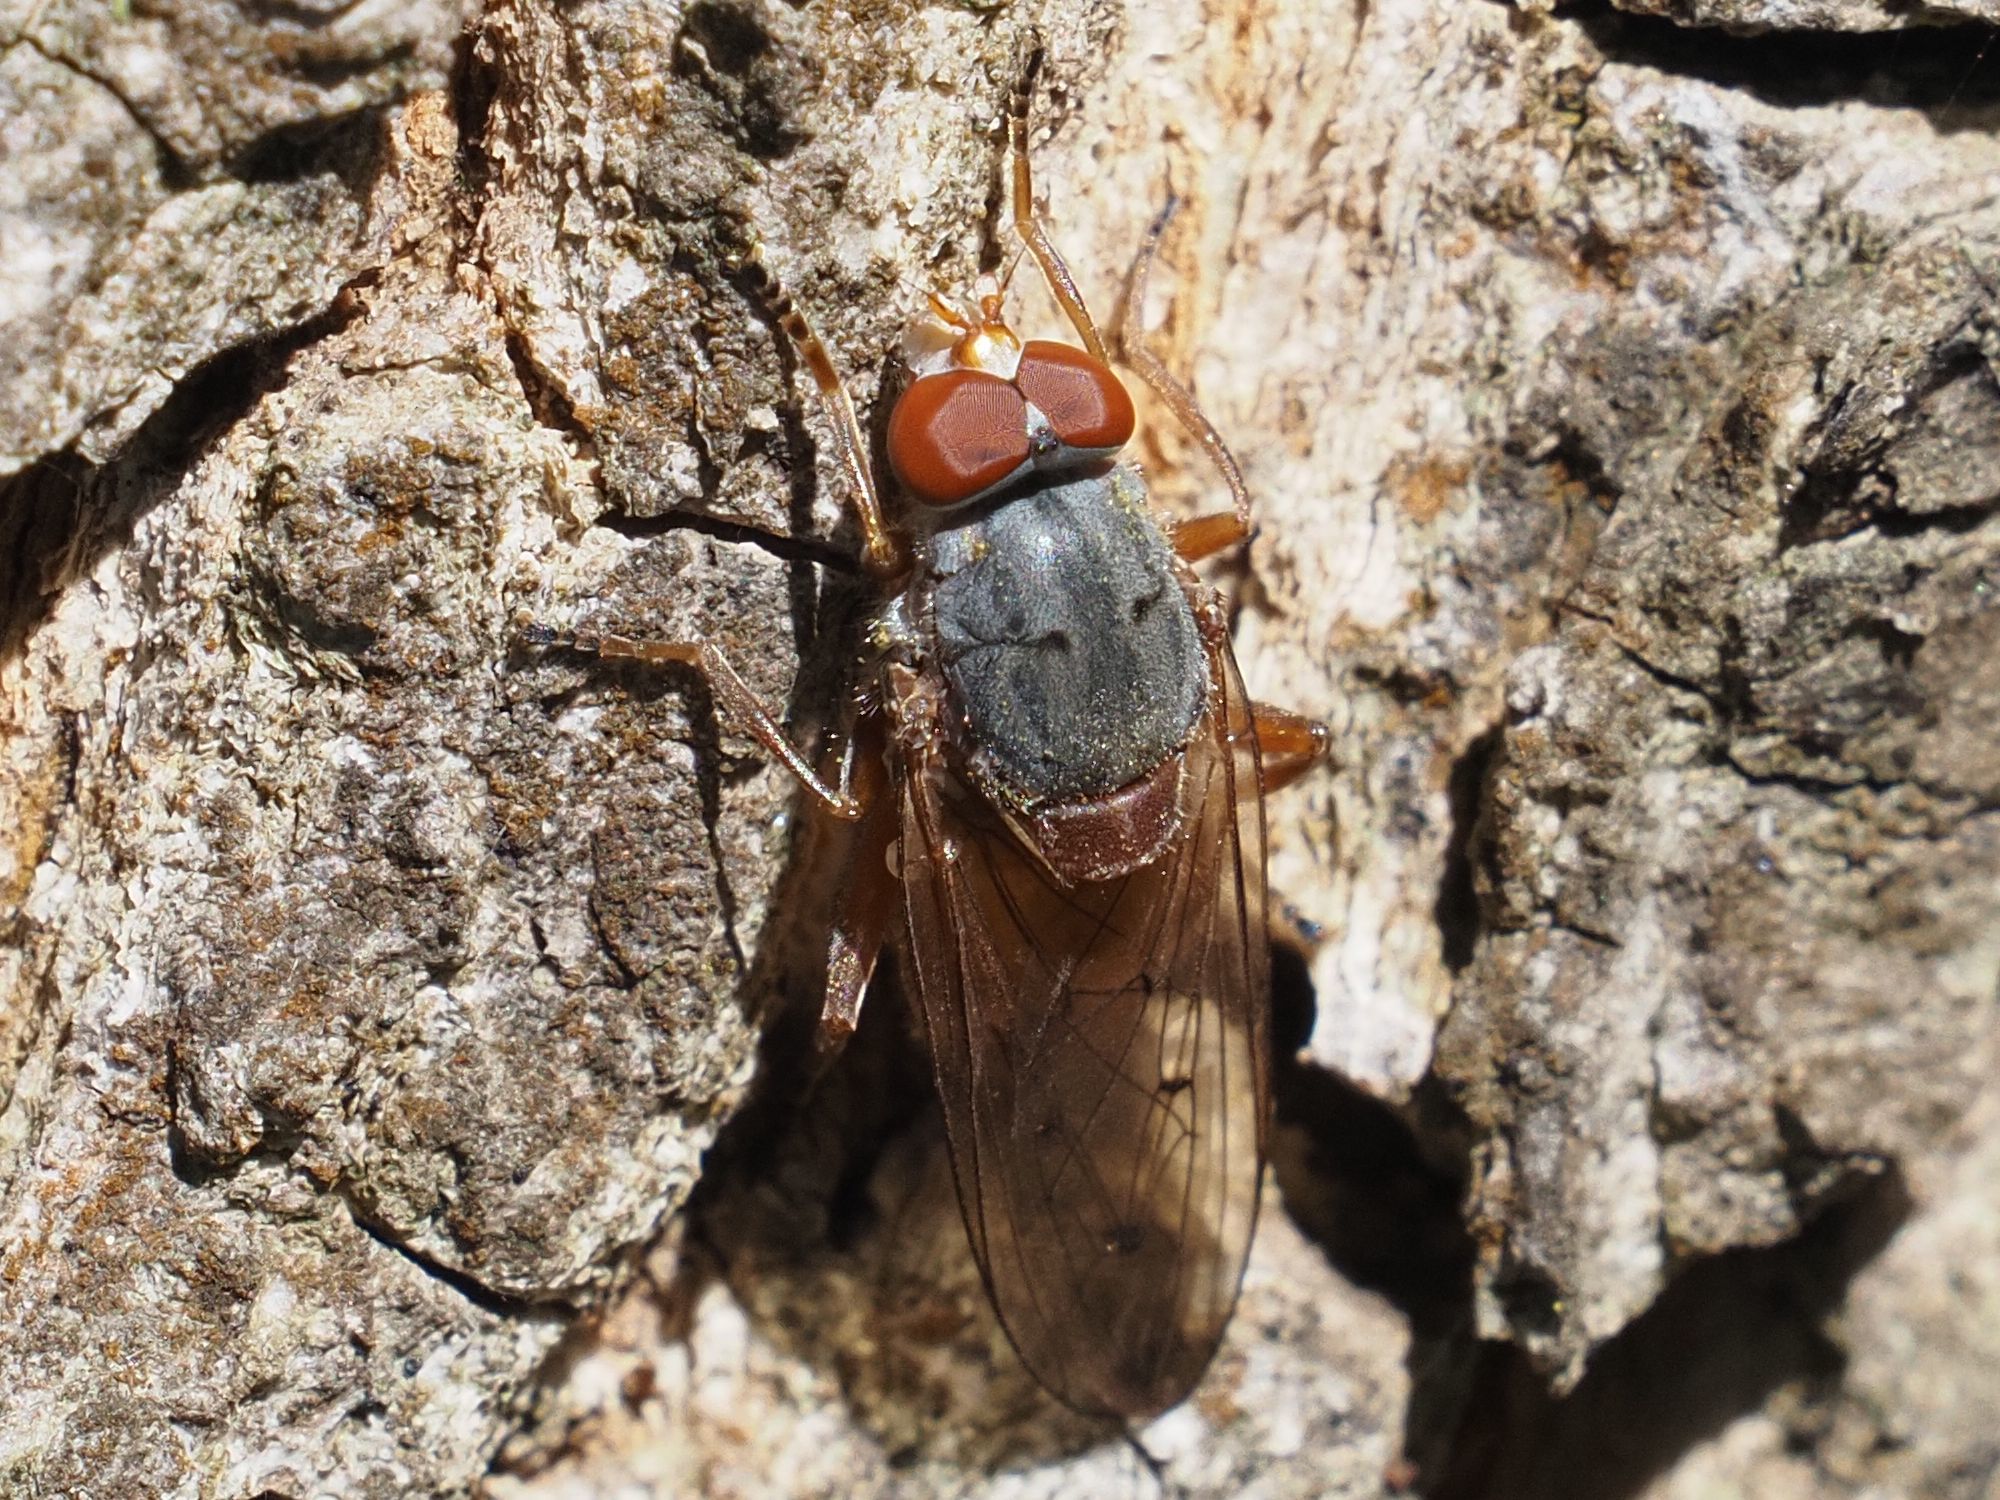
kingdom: Animalia
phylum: Arthropoda
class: Insecta
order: Diptera
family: Syrphidae
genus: Brachyopa
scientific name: Brachyopa maculipennis
